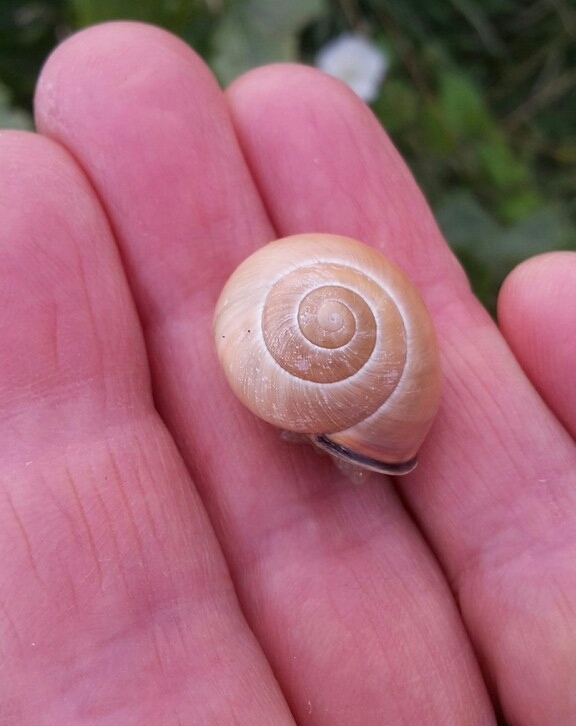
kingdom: Animalia
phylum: Mollusca
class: Gastropoda
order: Stylommatophora
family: Helicidae
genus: Cepaea
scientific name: Cepaea nemoralis
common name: Grovesnail
